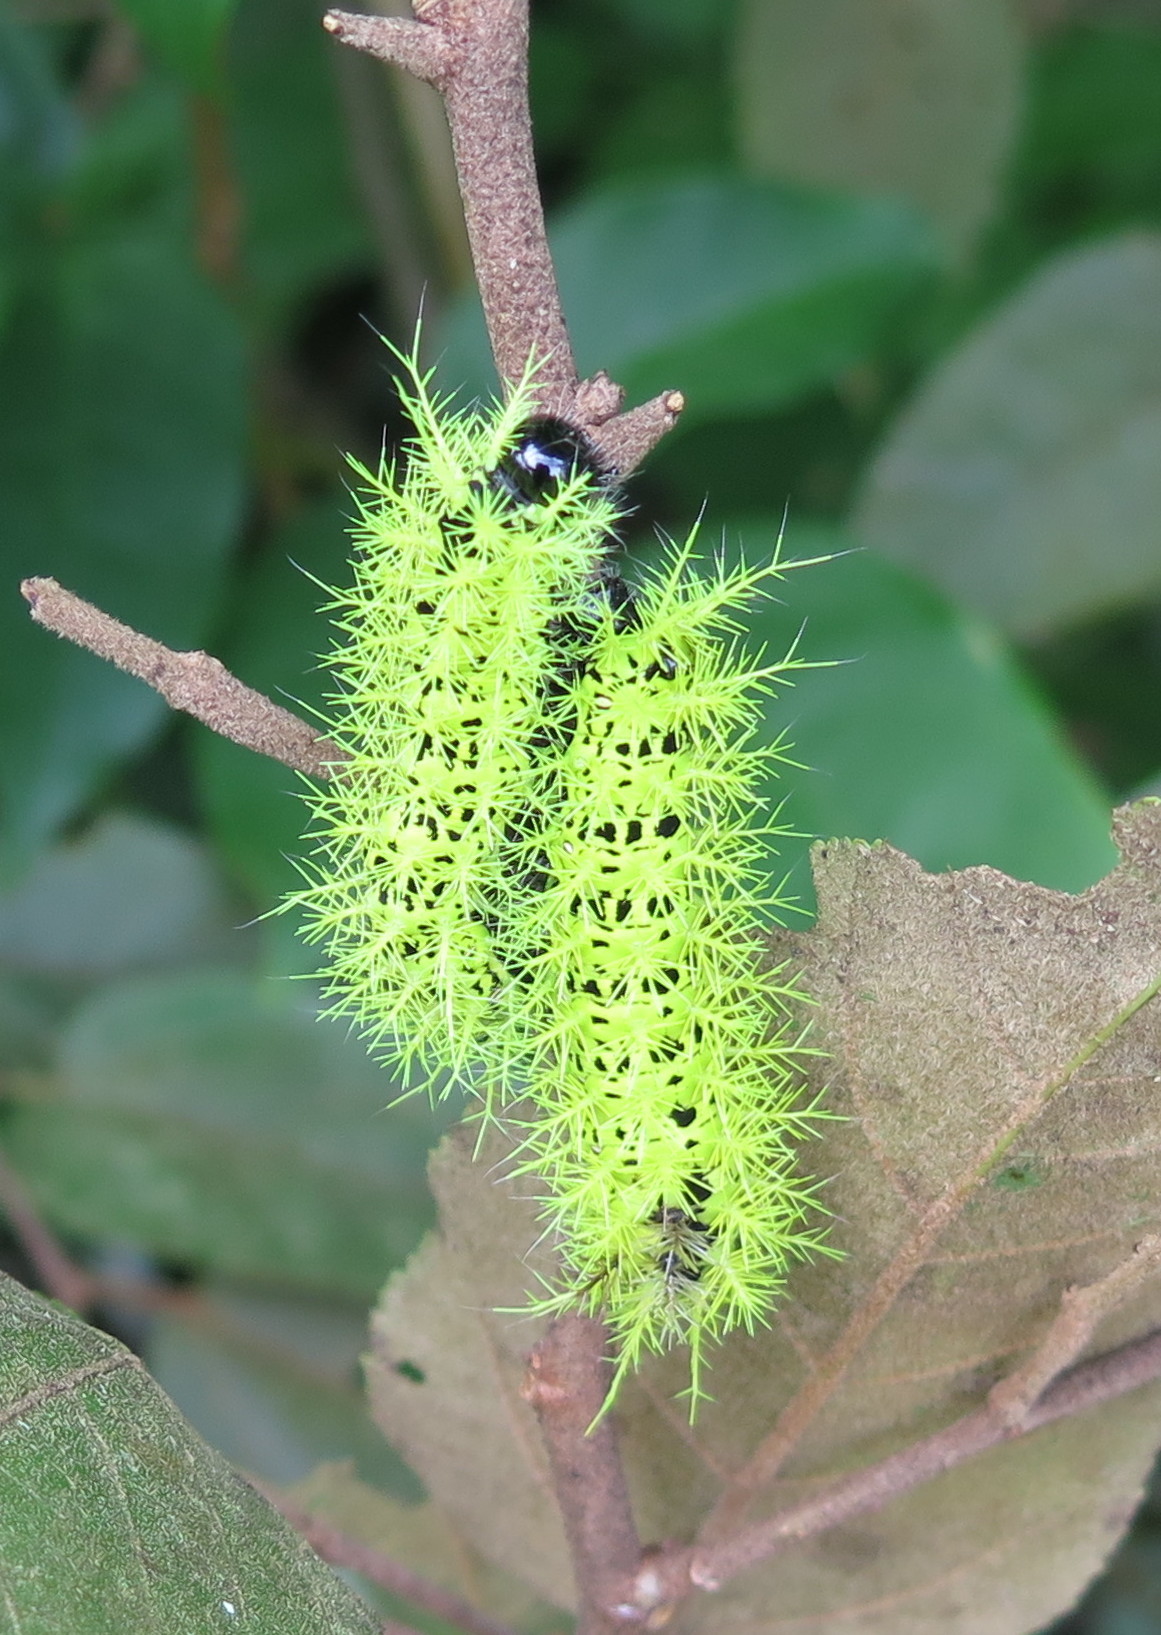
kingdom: Animalia
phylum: Arthropoda
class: Insecta
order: Lepidoptera
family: Saturniidae
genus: Molippa
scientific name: Molippa simillima
